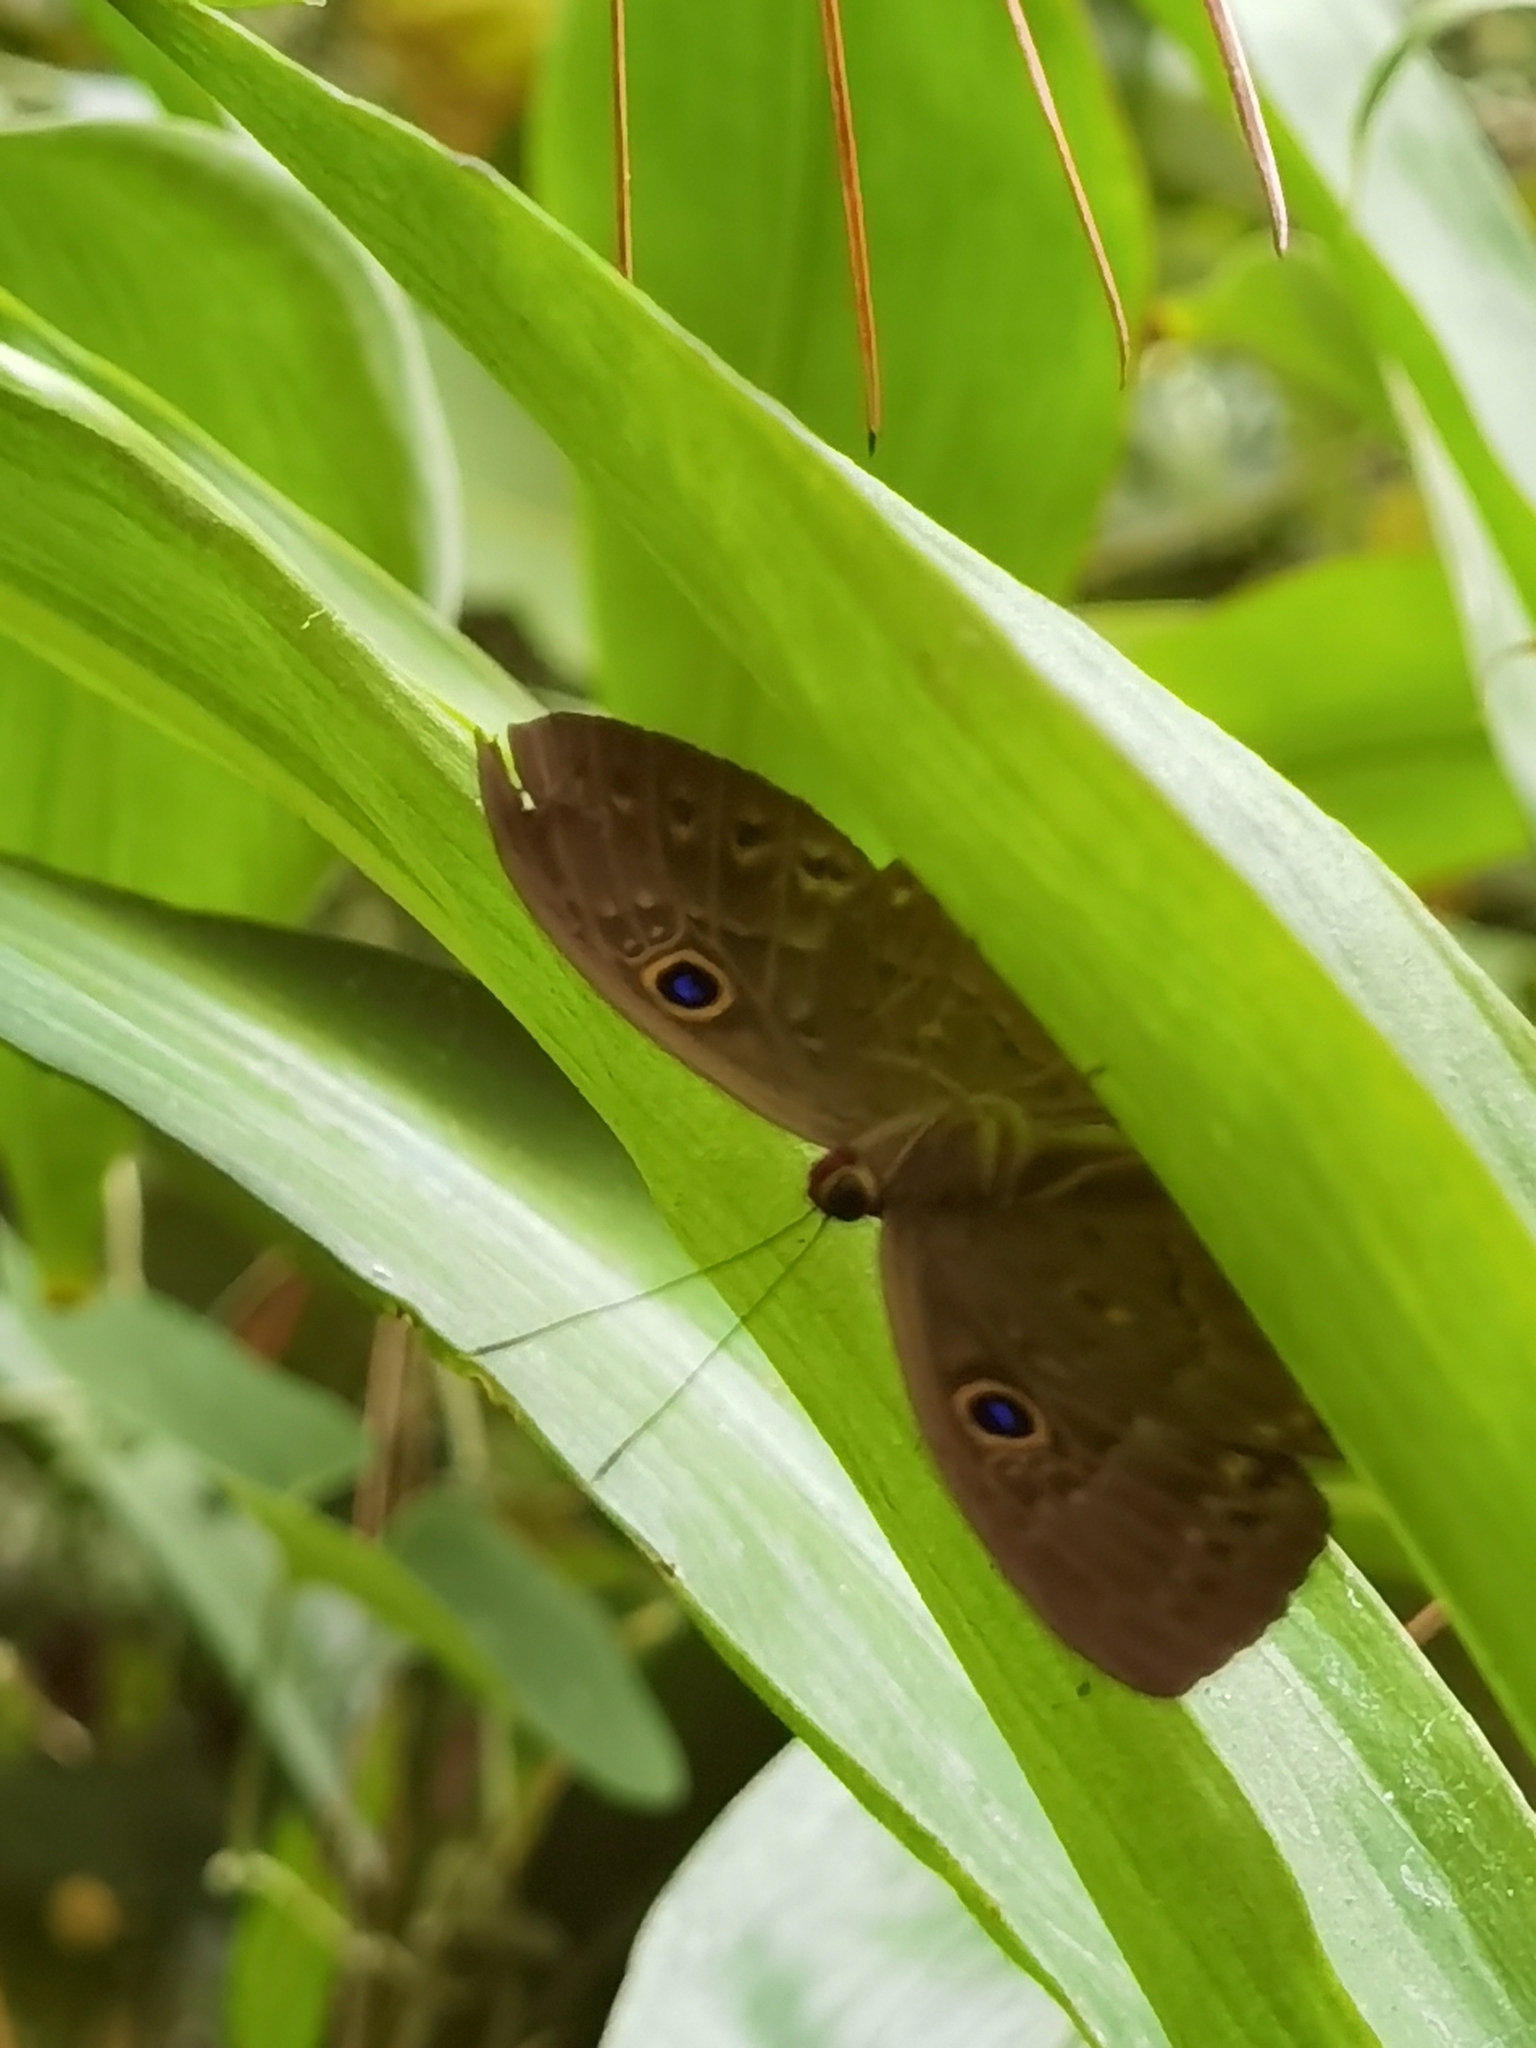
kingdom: Animalia
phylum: Cnidaria
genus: Eurybia
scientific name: Eurybia lycisca
